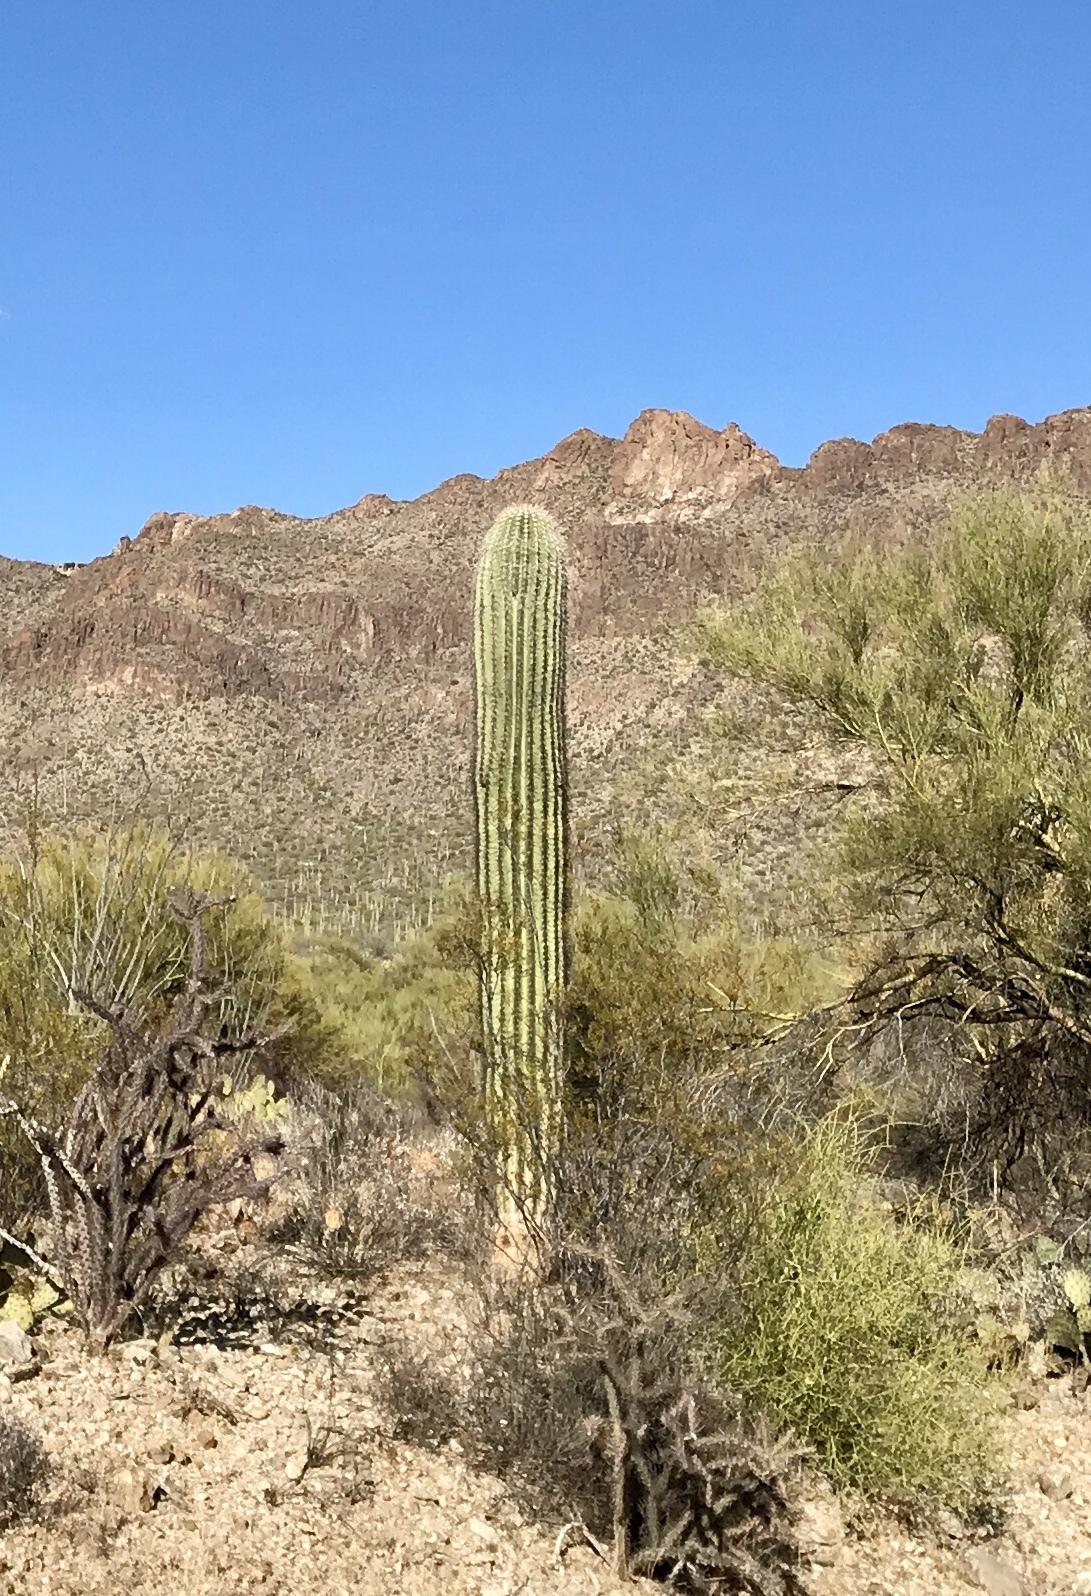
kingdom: Plantae
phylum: Tracheophyta
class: Magnoliopsida
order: Caryophyllales
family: Cactaceae
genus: Carnegiea
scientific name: Carnegiea gigantea
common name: Saguaro
